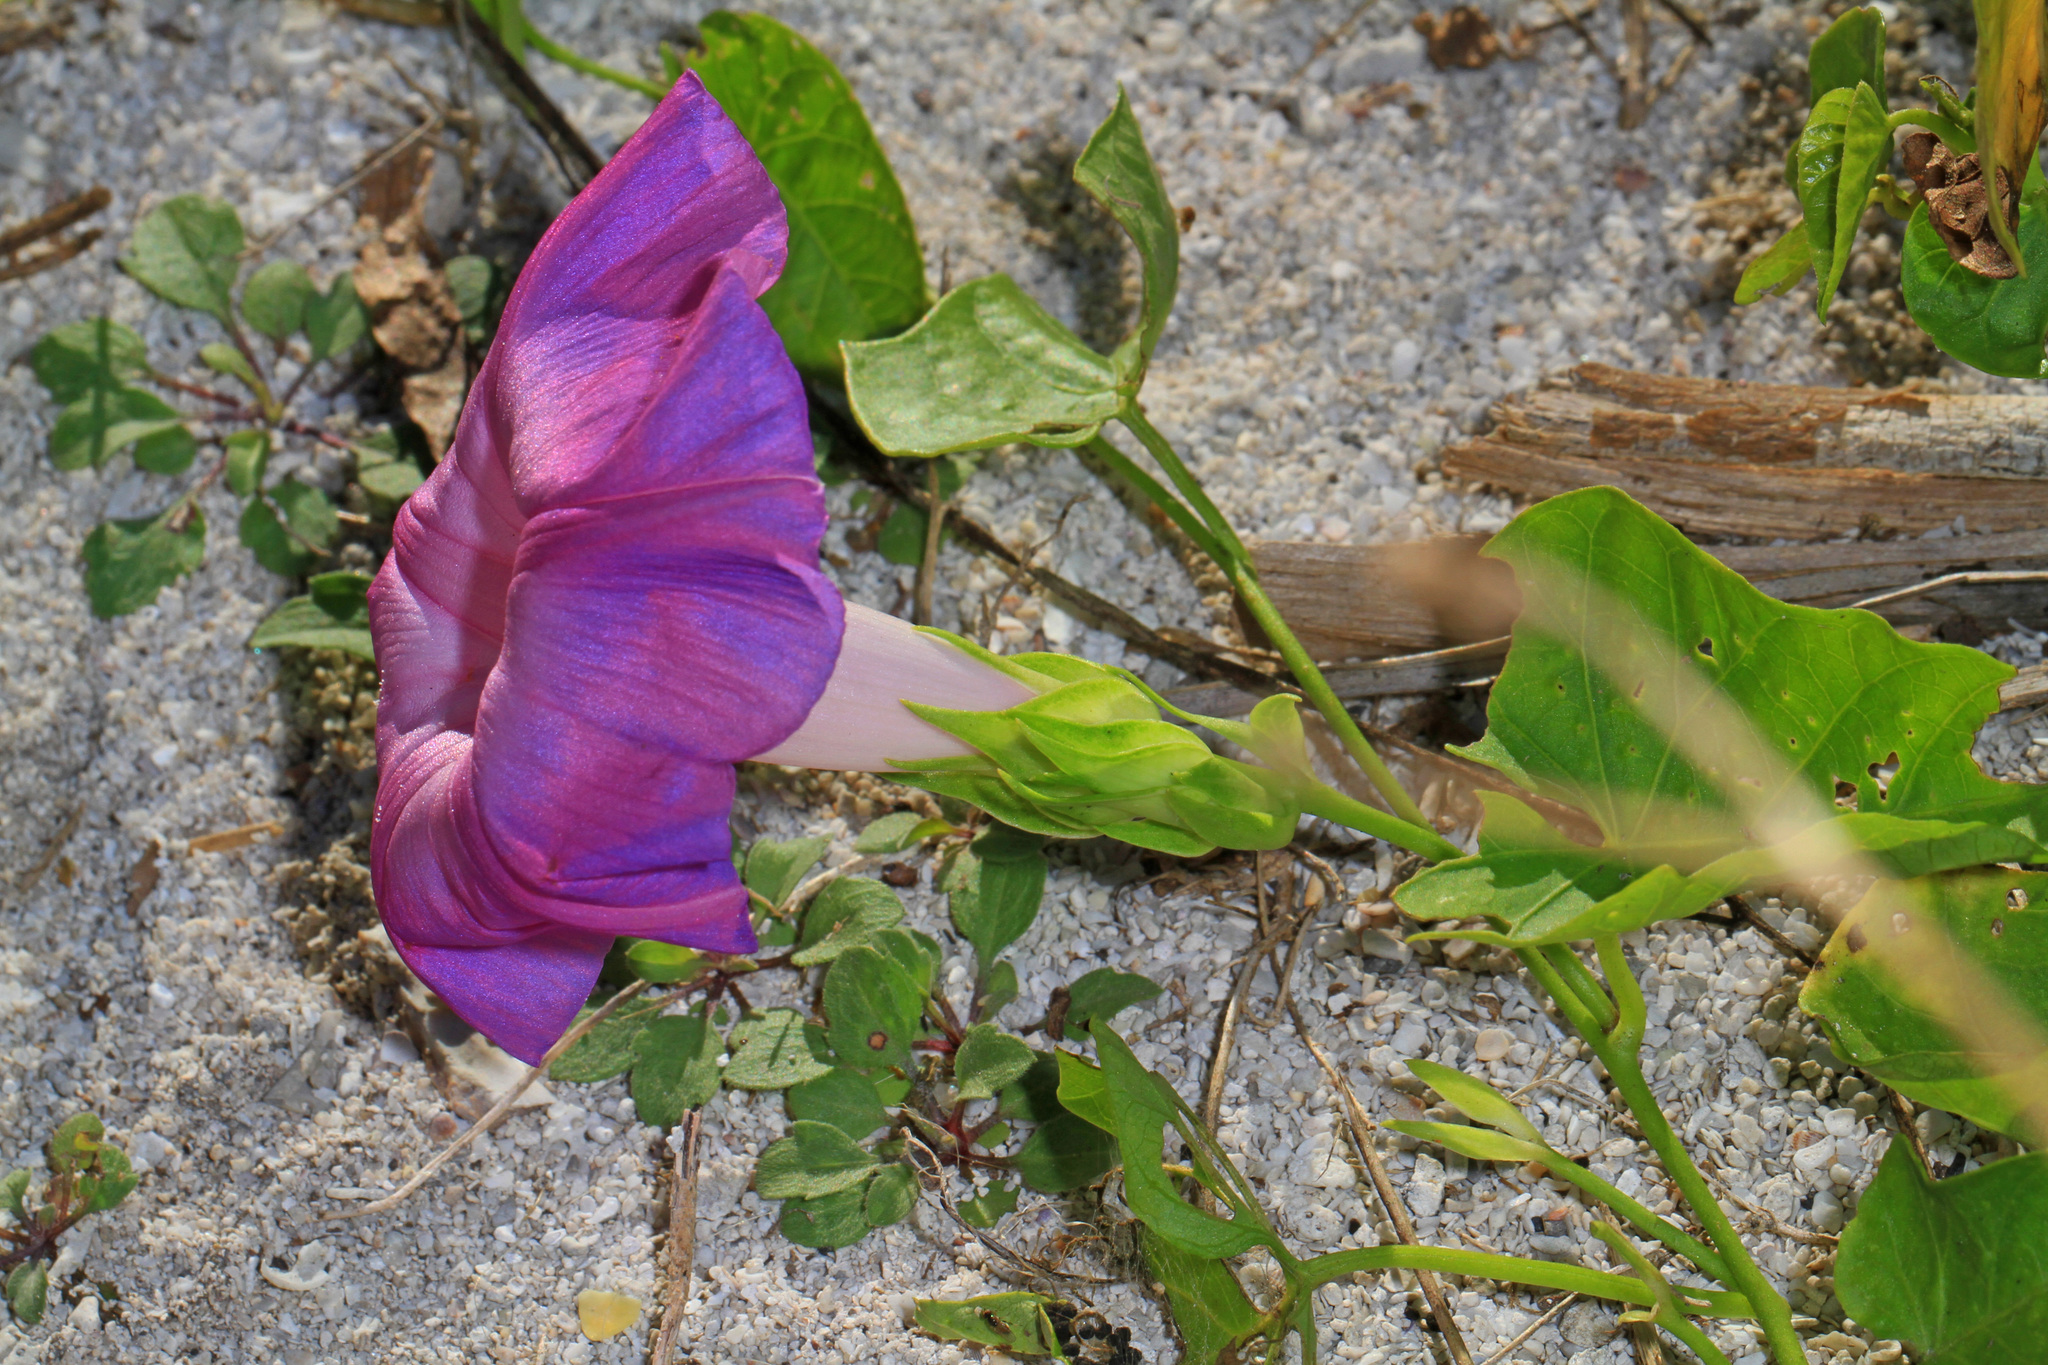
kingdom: Plantae
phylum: Tracheophyta
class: Magnoliopsida
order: Solanales
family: Convolvulaceae
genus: Ipomoea
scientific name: Ipomoea pes-caprae
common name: Beach morning glory
